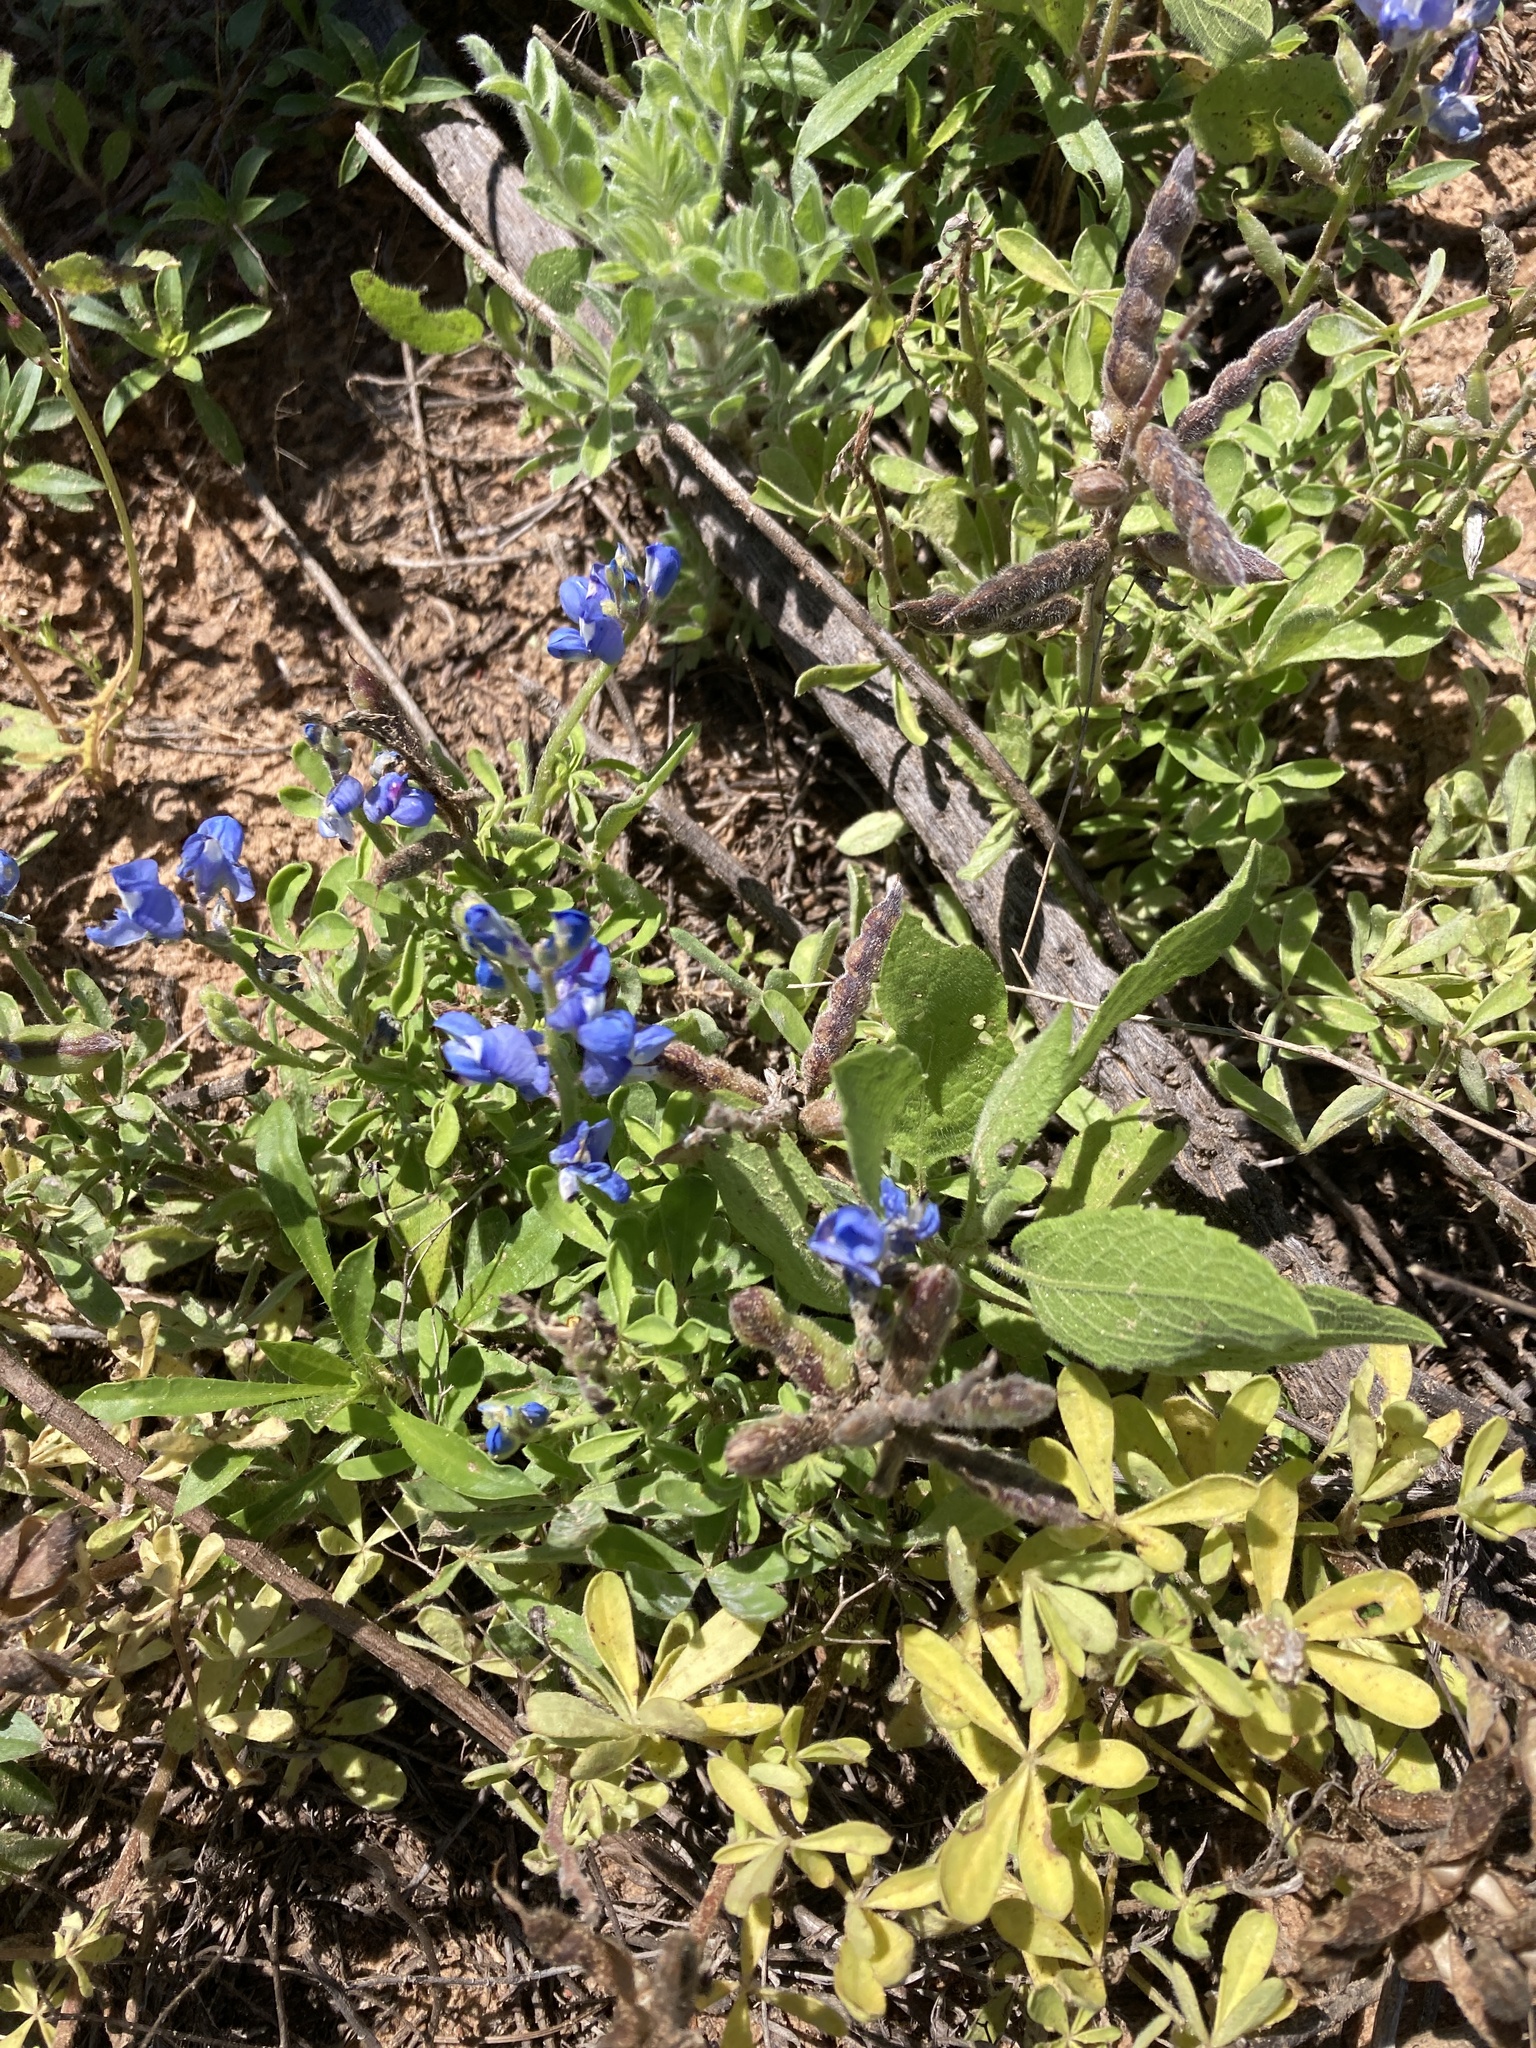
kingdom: Plantae
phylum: Tracheophyta
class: Magnoliopsida
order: Fabales
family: Fabaceae
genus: Lupinus
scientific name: Lupinus subcarnosus
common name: Texas bluebonnet
